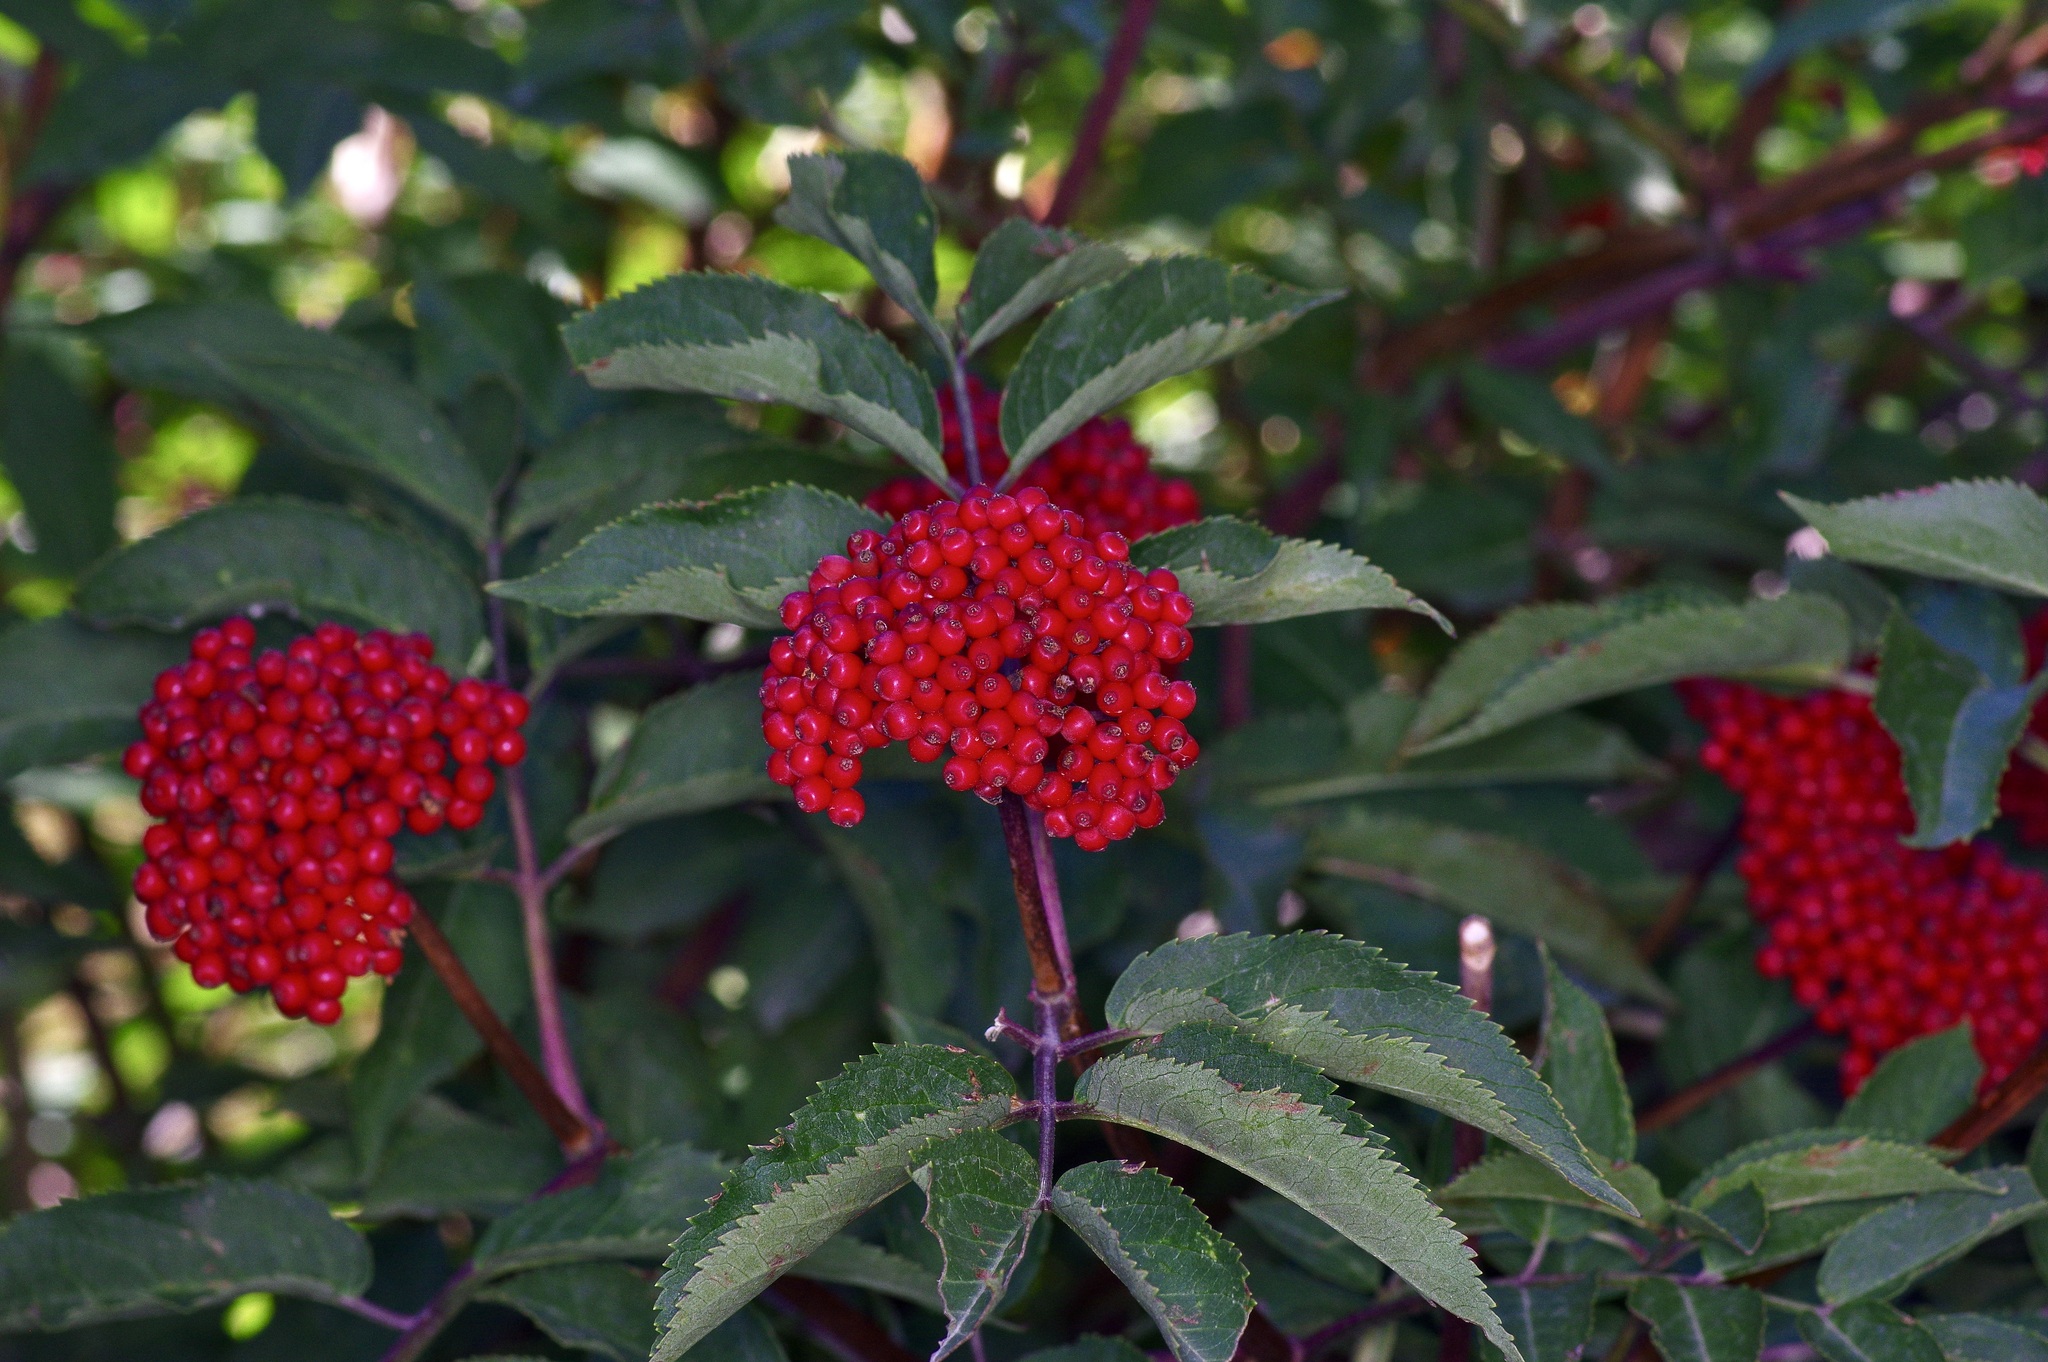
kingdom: Plantae
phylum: Tracheophyta
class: Magnoliopsida
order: Dipsacales
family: Viburnaceae
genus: Sambucus
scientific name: Sambucus racemosa
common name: Red-berried elder
